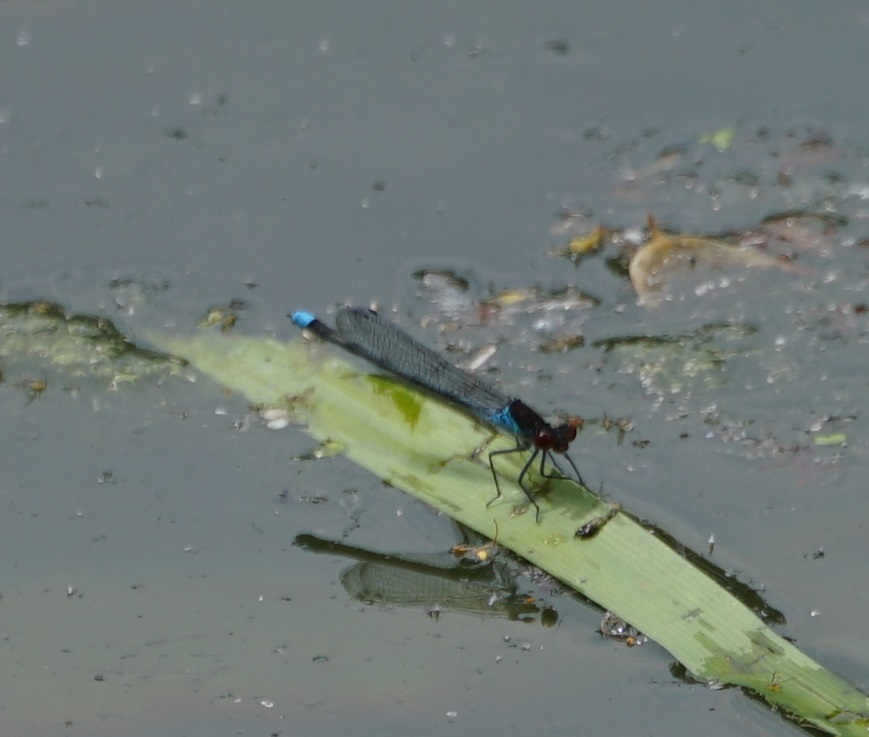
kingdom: Animalia
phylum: Arthropoda
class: Insecta
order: Odonata
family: Coenagrionidae
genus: Erythromma
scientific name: Erythromma najas
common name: Red-eyed damselfly
